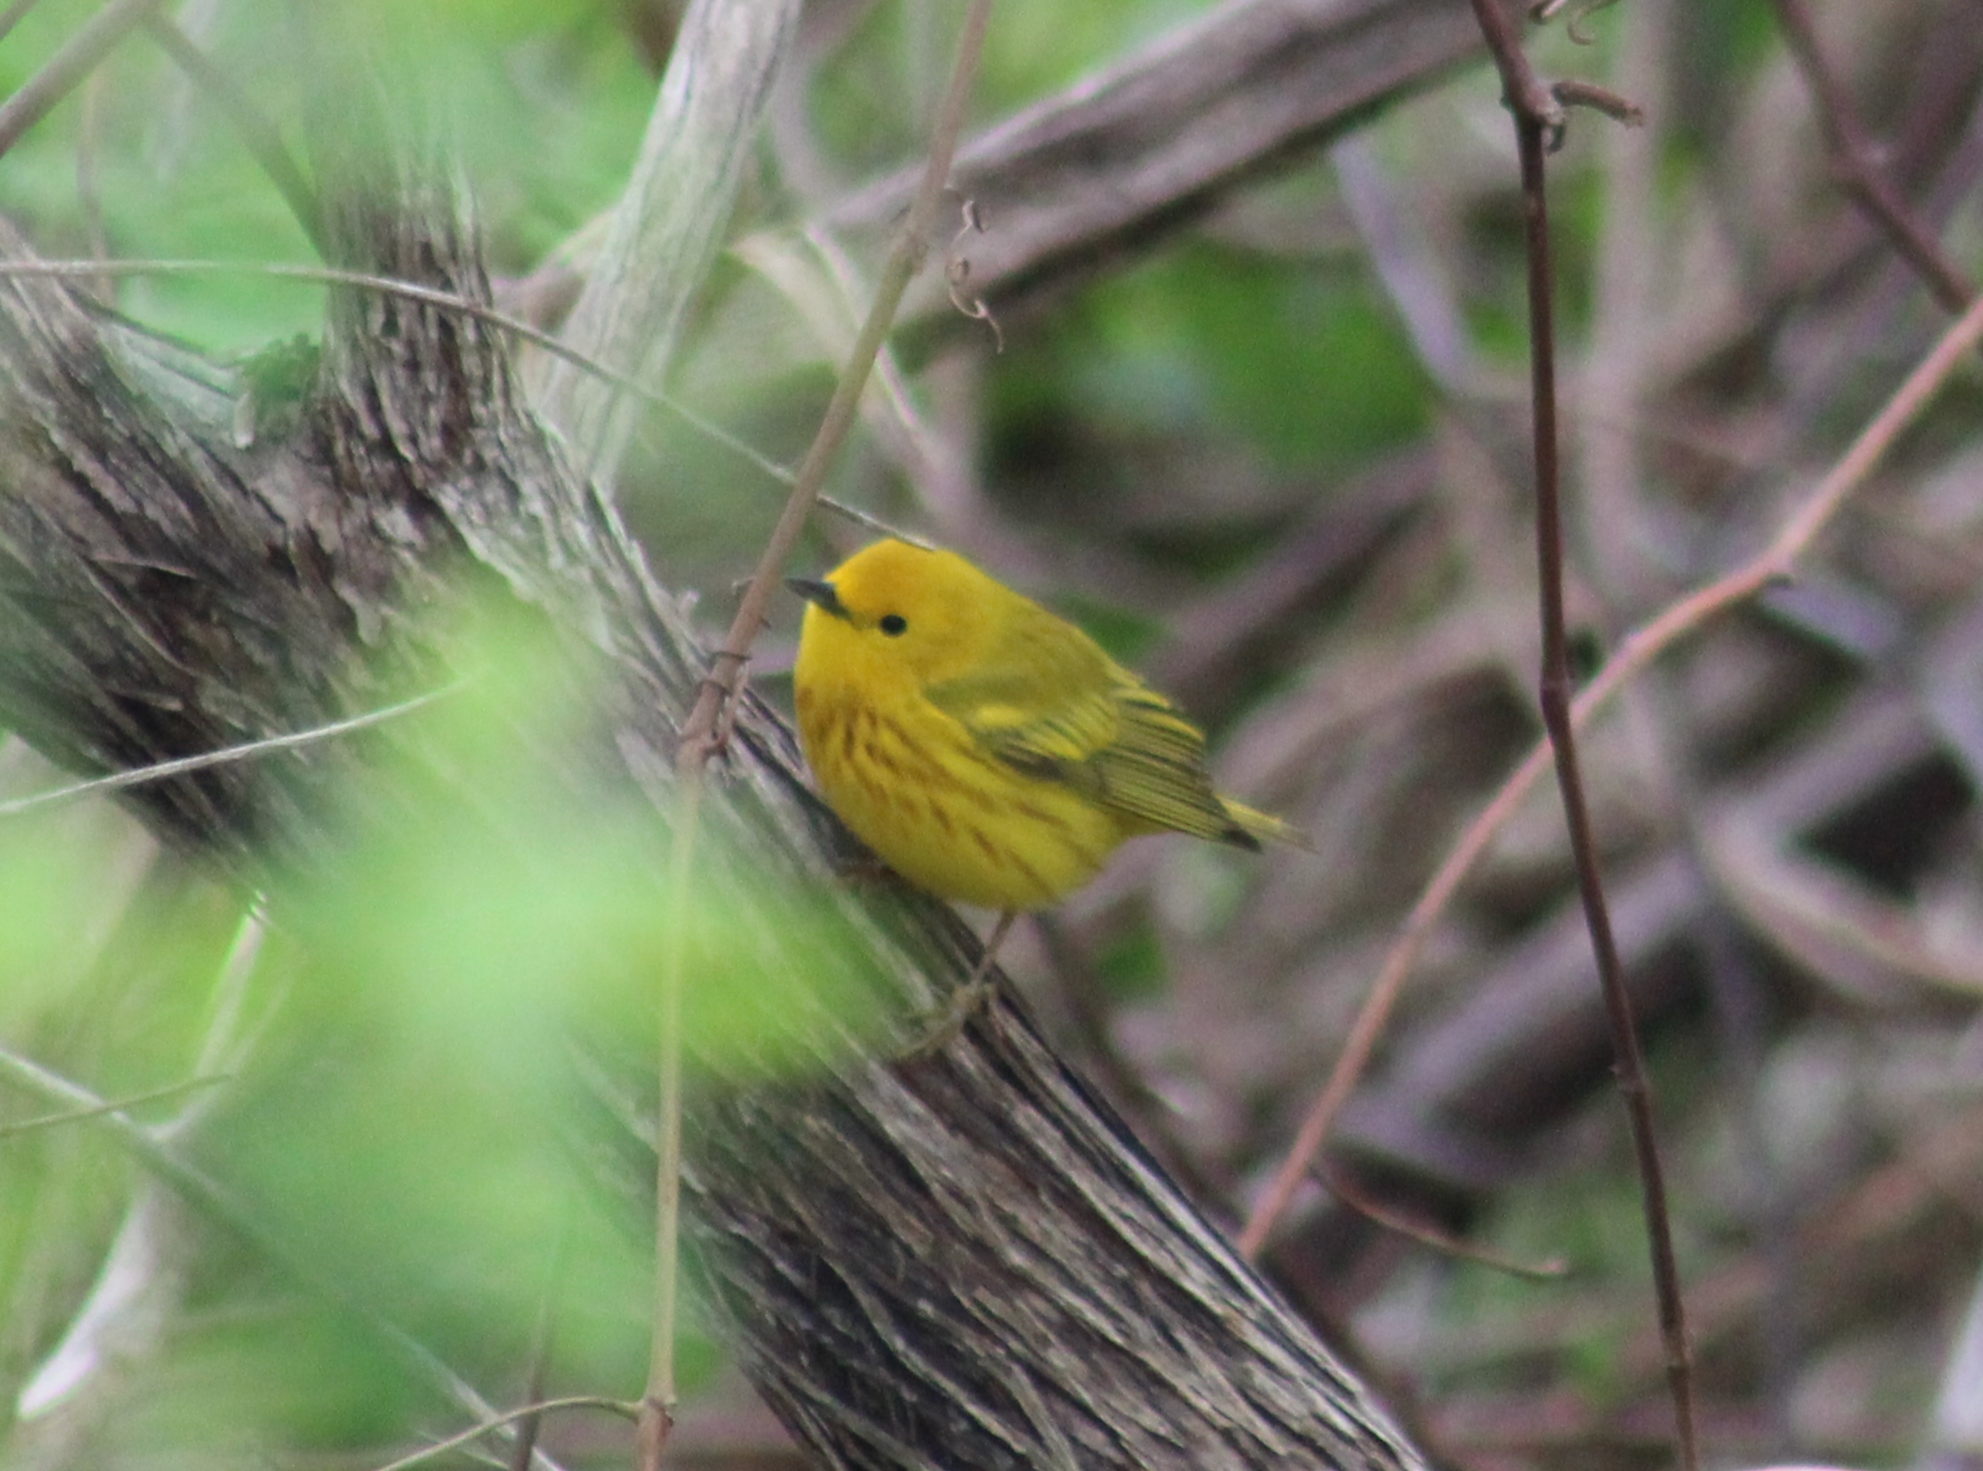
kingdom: Animalia
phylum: Chordata
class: Aves
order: Passeriformes
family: Parulidae
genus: Setophaga
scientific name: Setophaga petechia
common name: Yellow warbler
